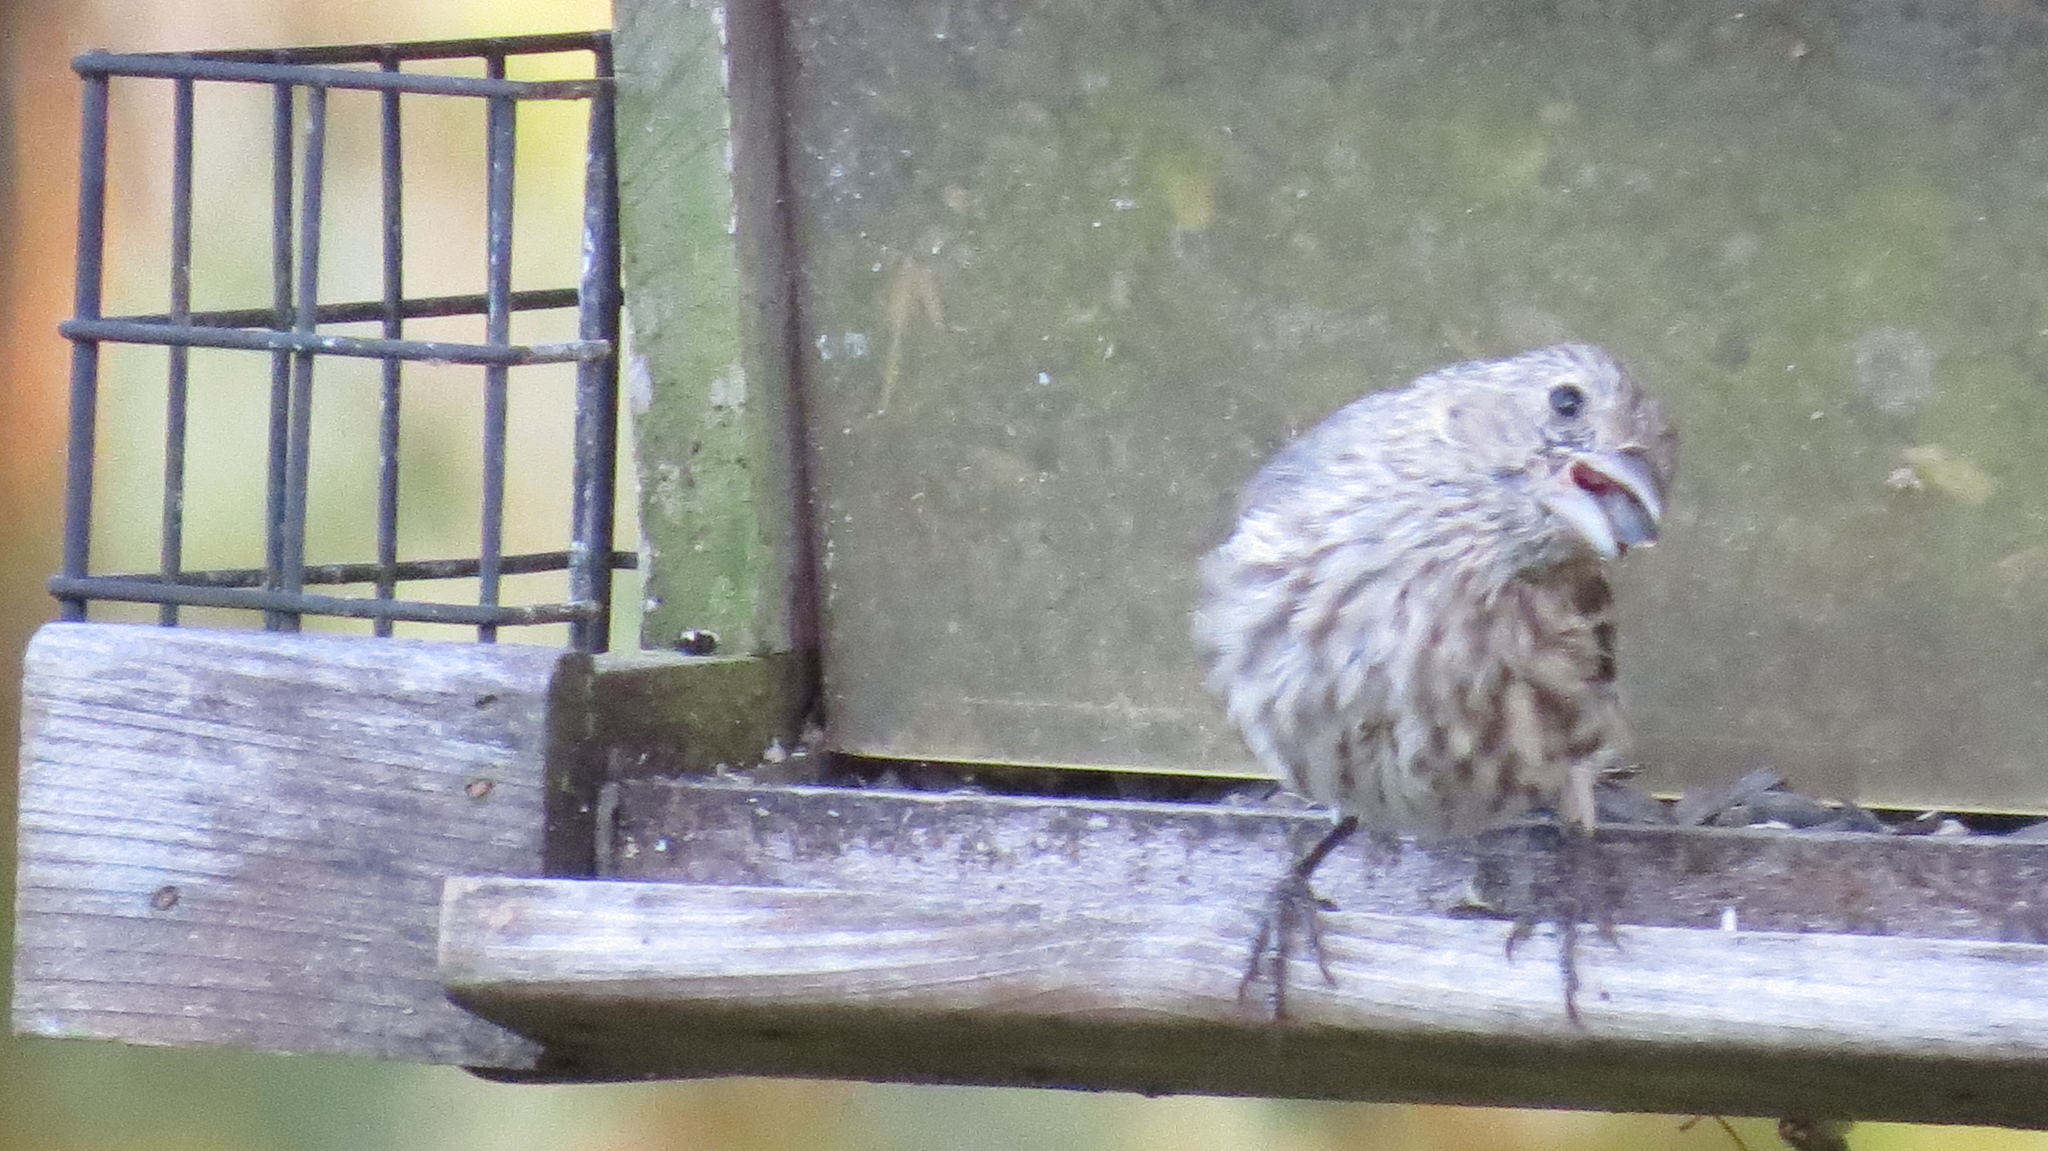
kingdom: Animalia
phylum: Chordata
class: Aves
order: Passeriformes
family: Fringillidae
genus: Haemorhous
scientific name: Haemorhous mexicanus
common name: House finch
